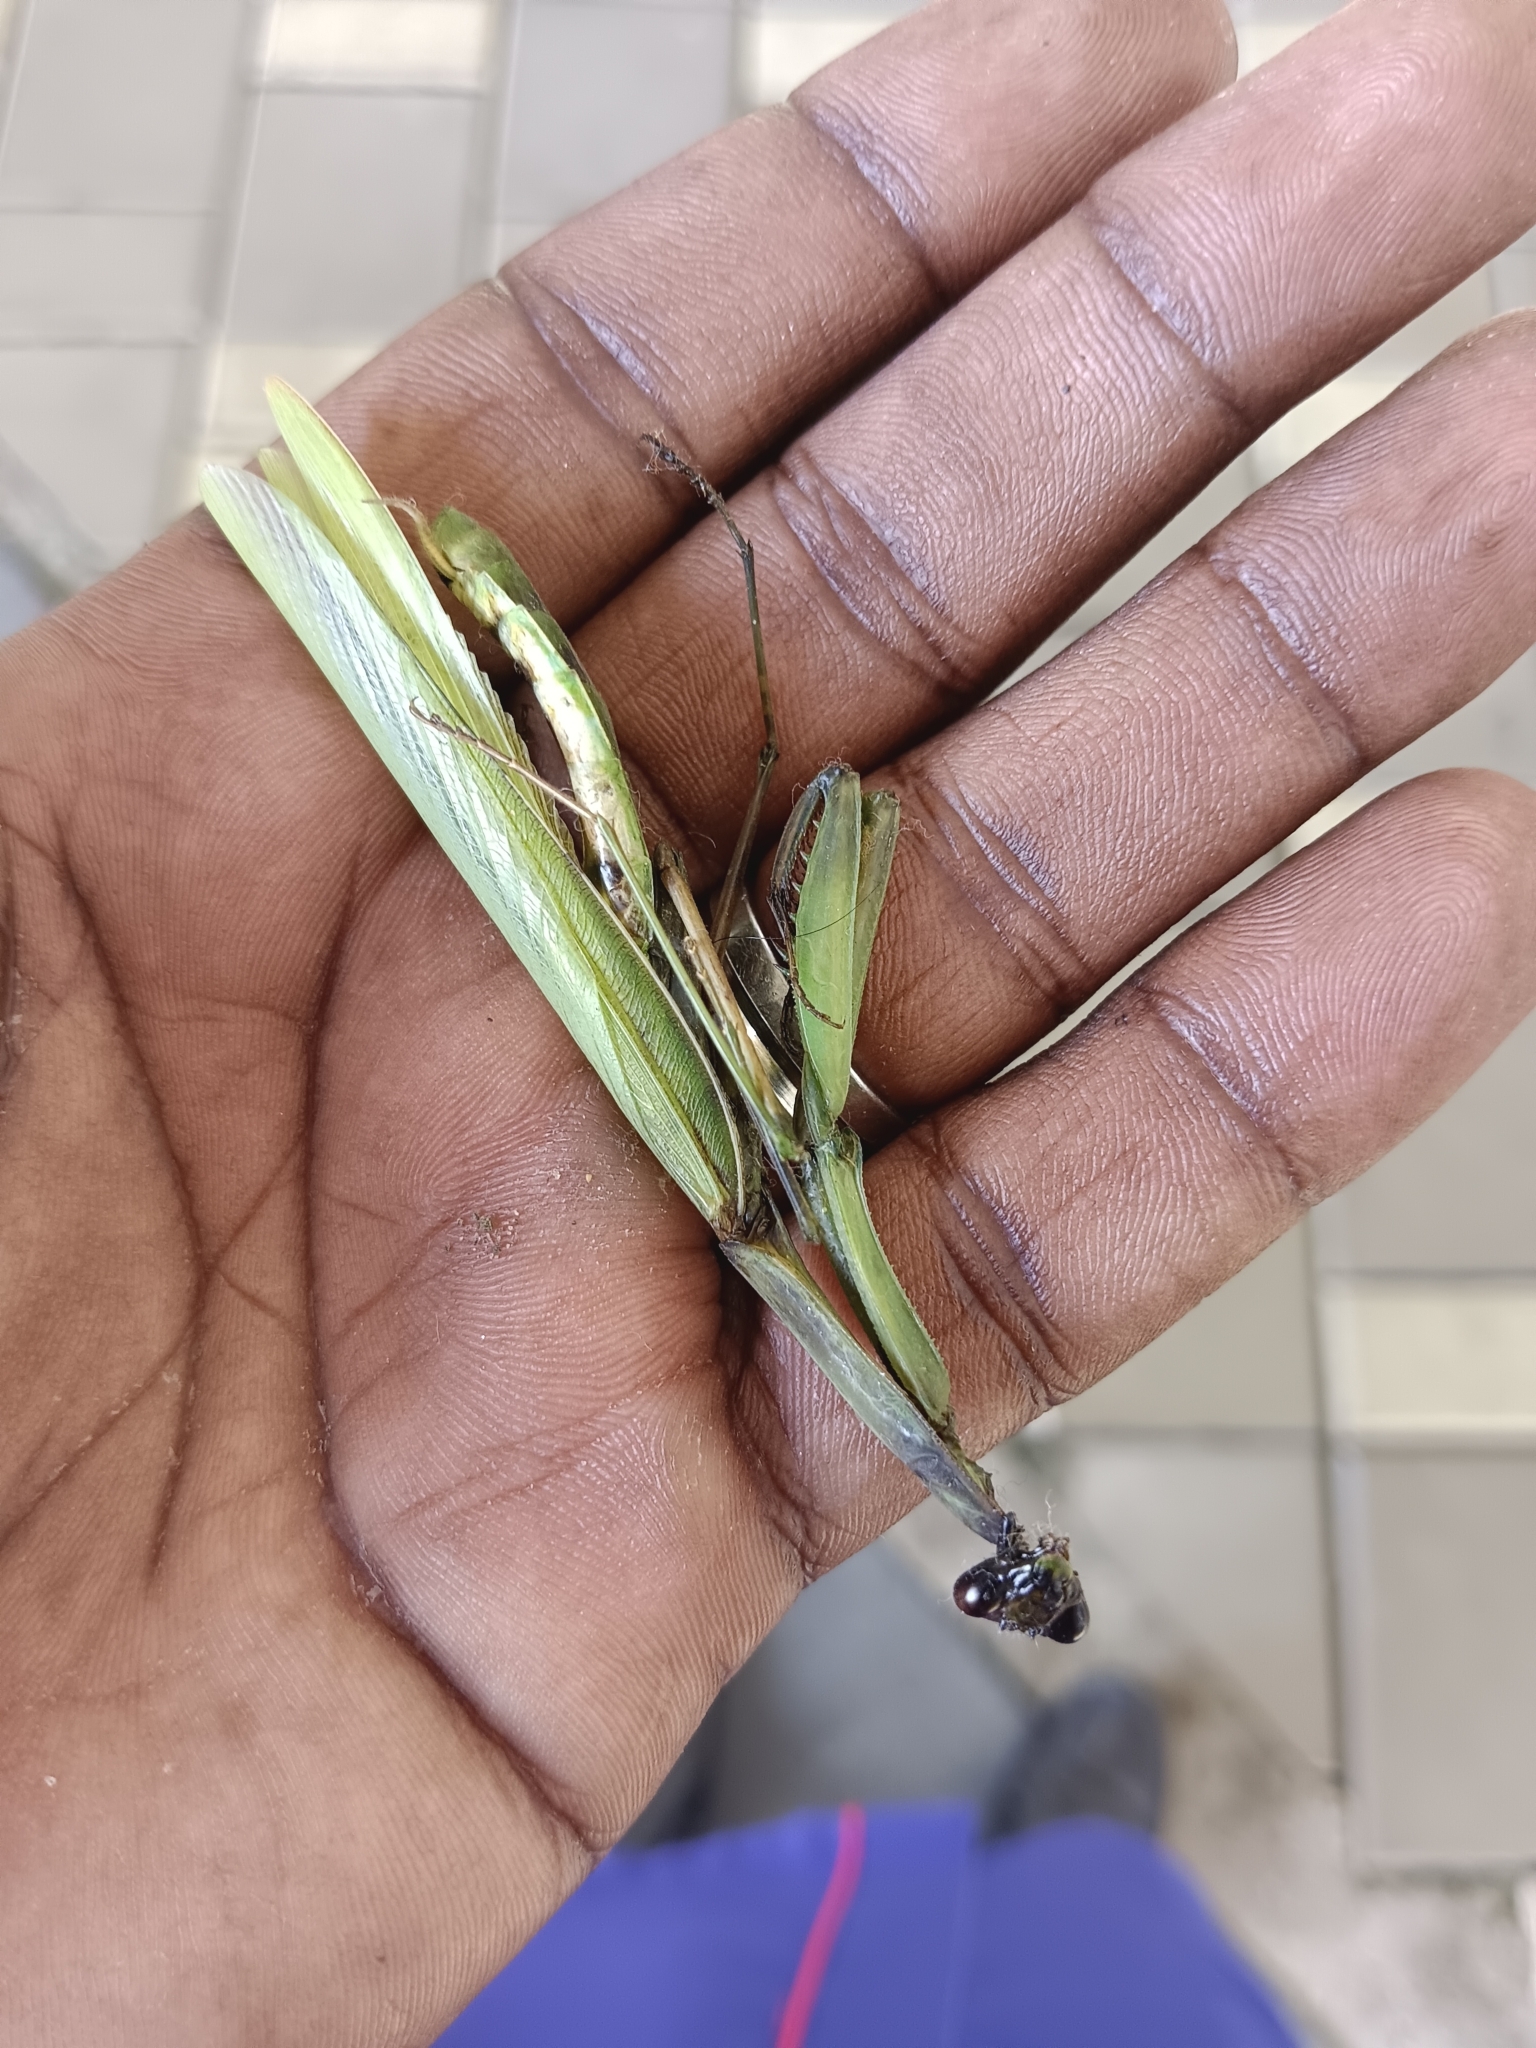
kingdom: Animalia
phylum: Arthropoda
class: Insecta
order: Mantodea
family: Mantidae
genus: Mantis
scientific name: Mantis religiosa
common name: Praying mantis
